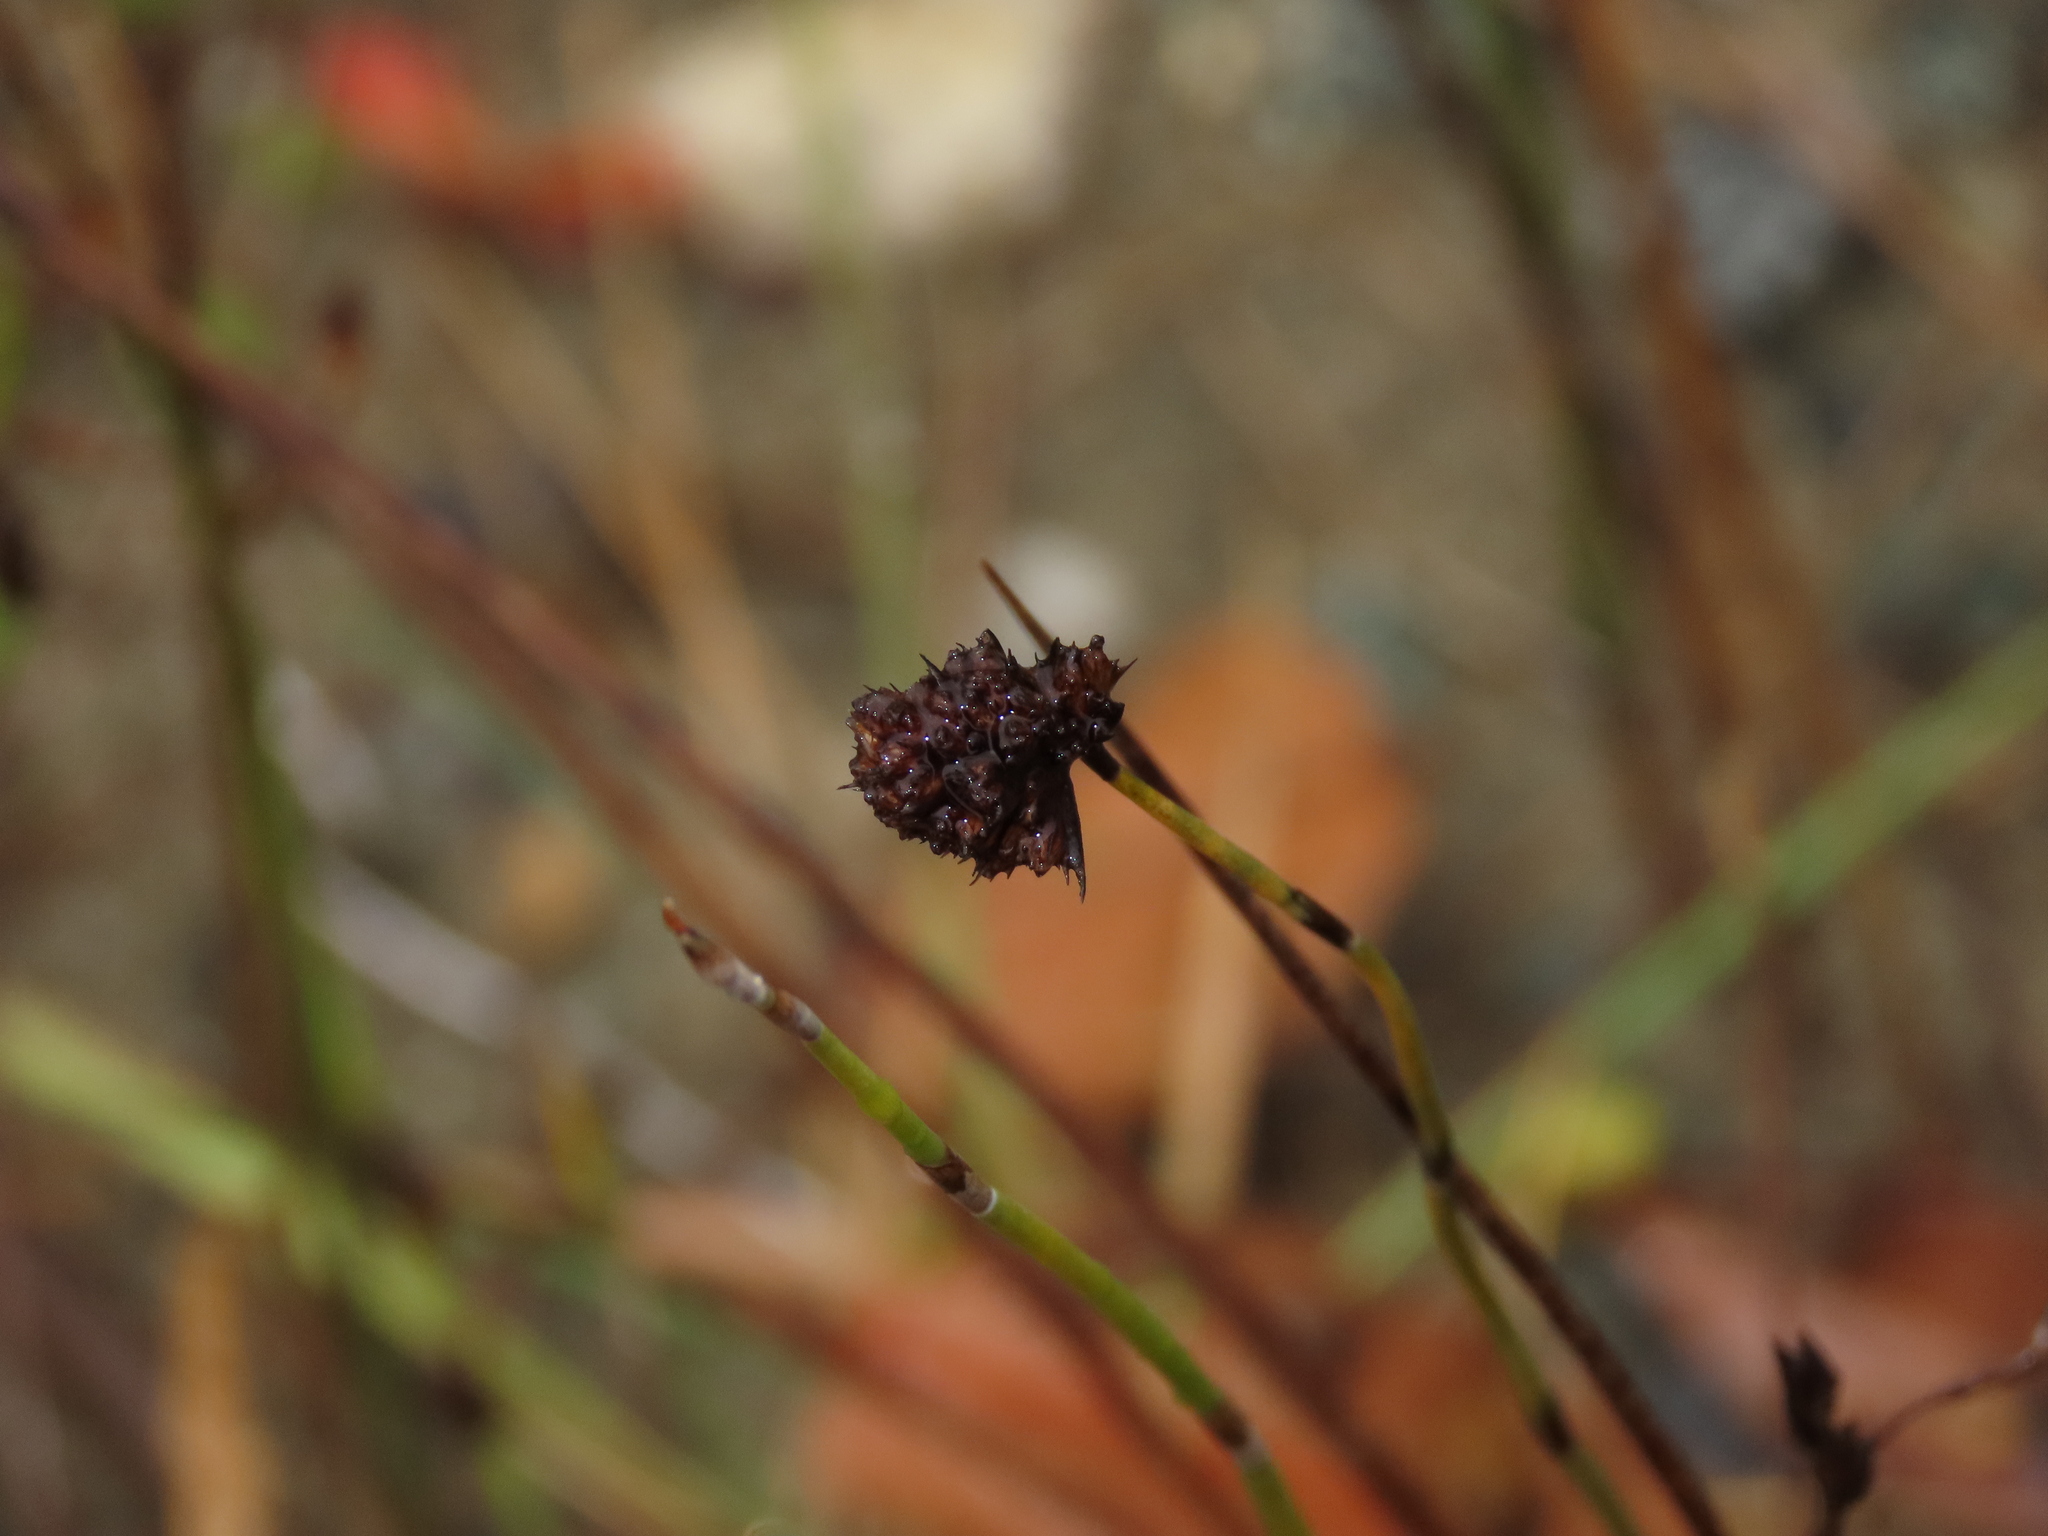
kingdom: Plantae
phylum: Tracheophyta
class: Liliopsida
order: Poales
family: Restionaceae
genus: Apodasmia
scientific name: Apodasmia chilensis
